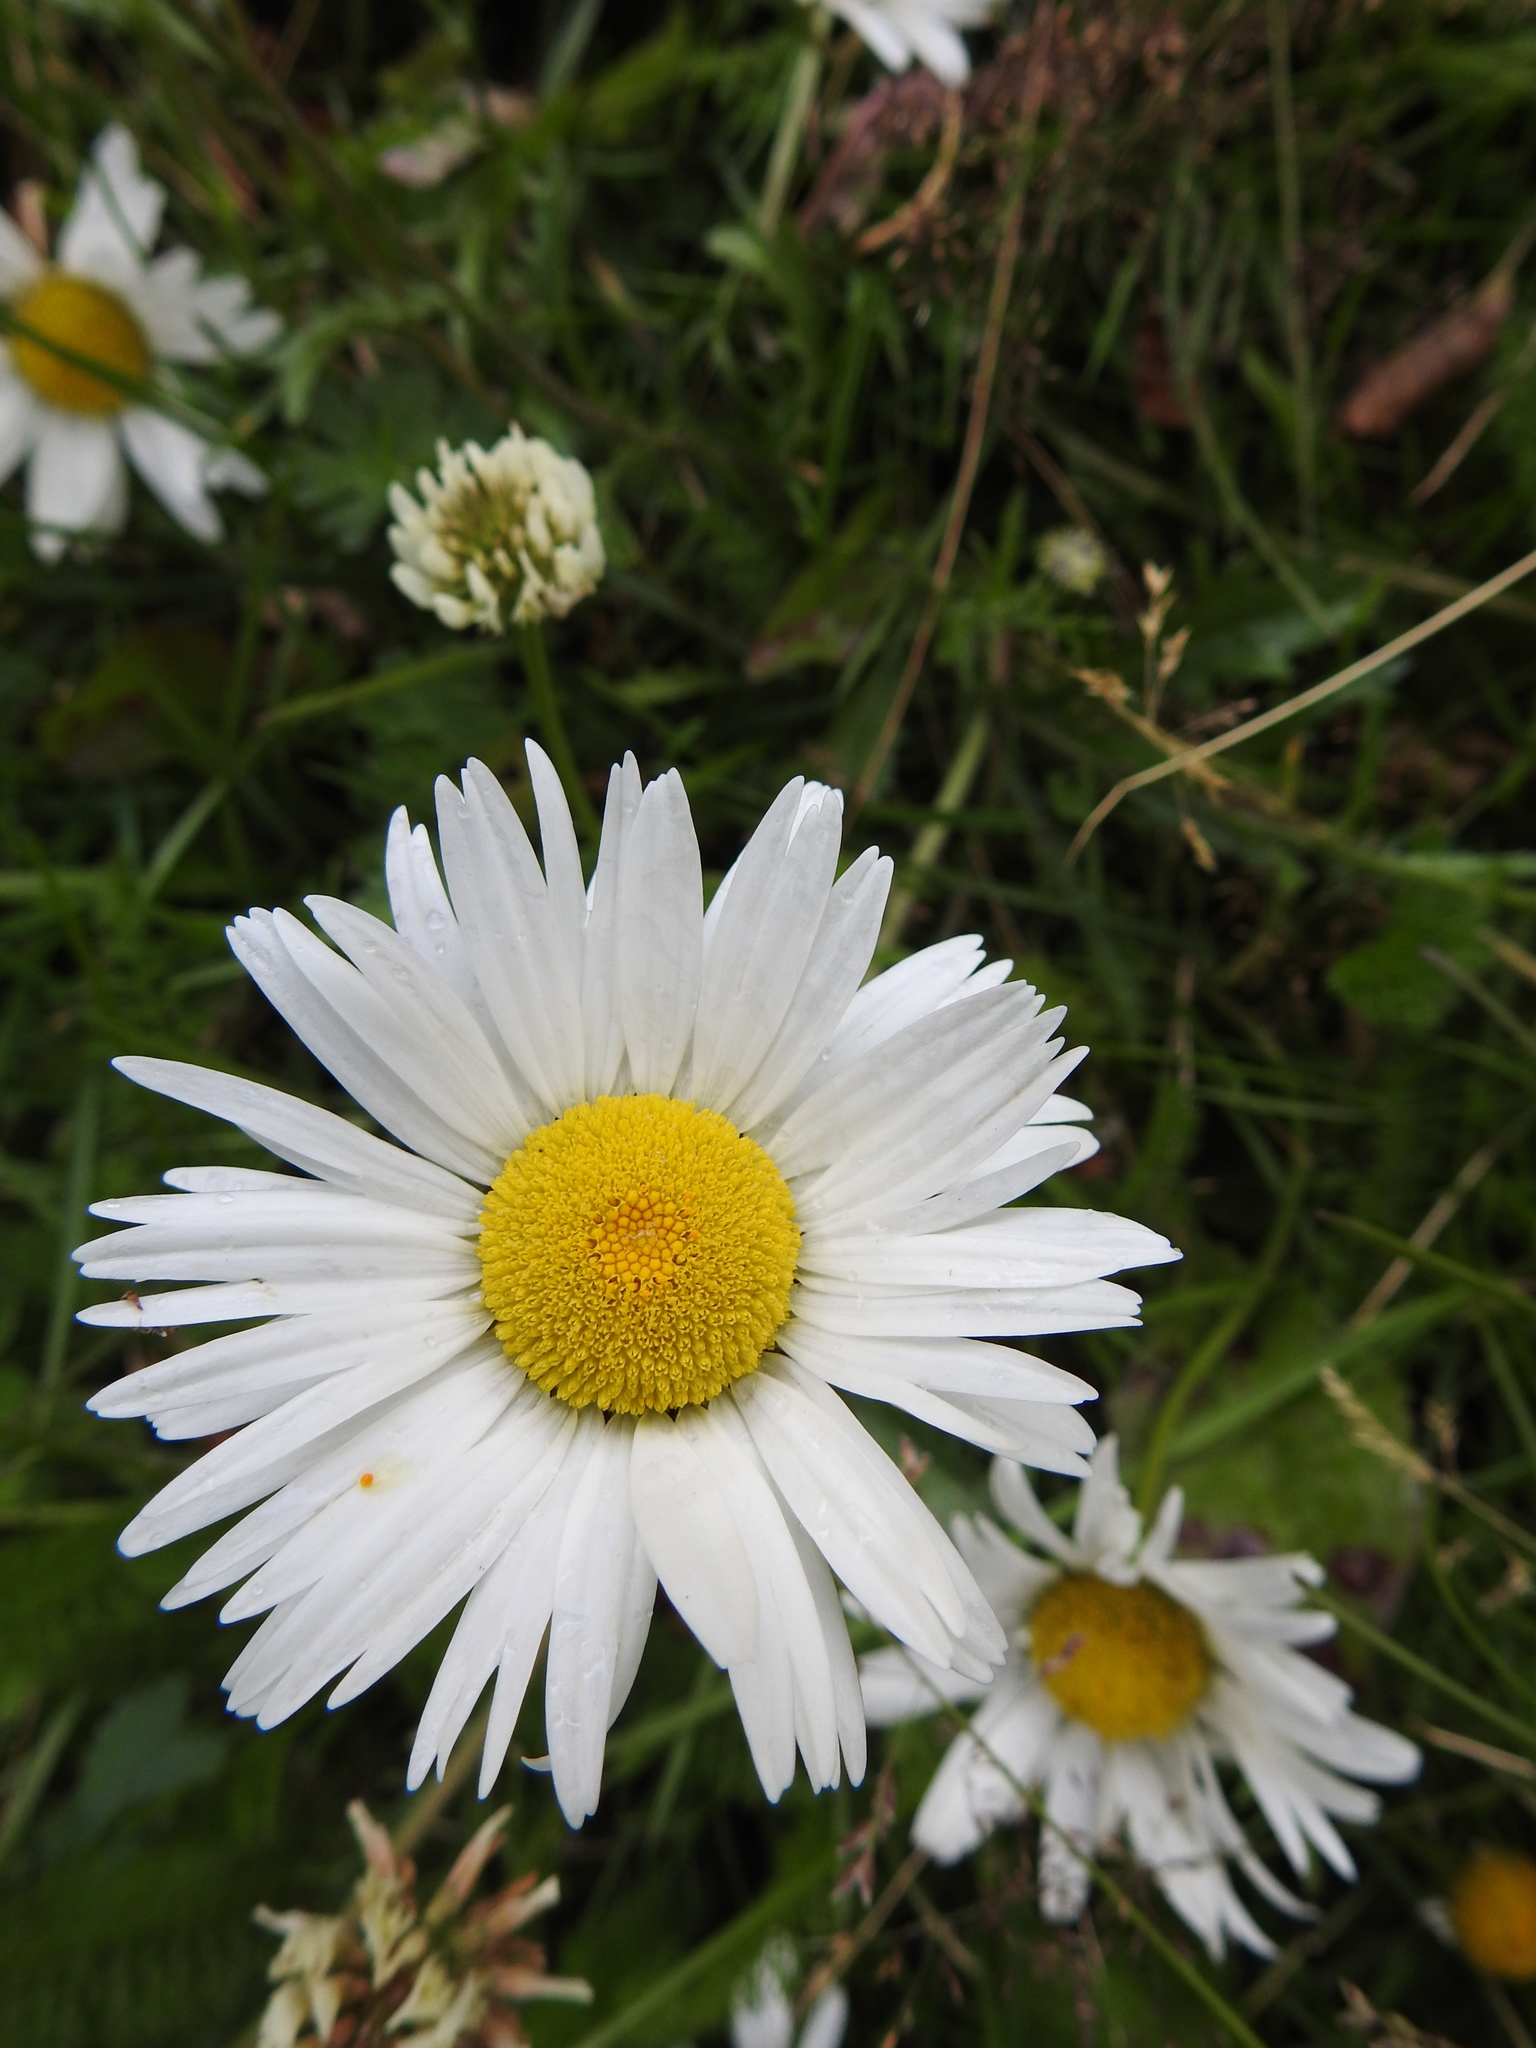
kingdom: Plantae
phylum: Tracheophyta
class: Magnoliopsida
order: Asterales
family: Asteraceae
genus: Leucanthemum
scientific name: Leucanthemum vulgare
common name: Oxeye daisy
